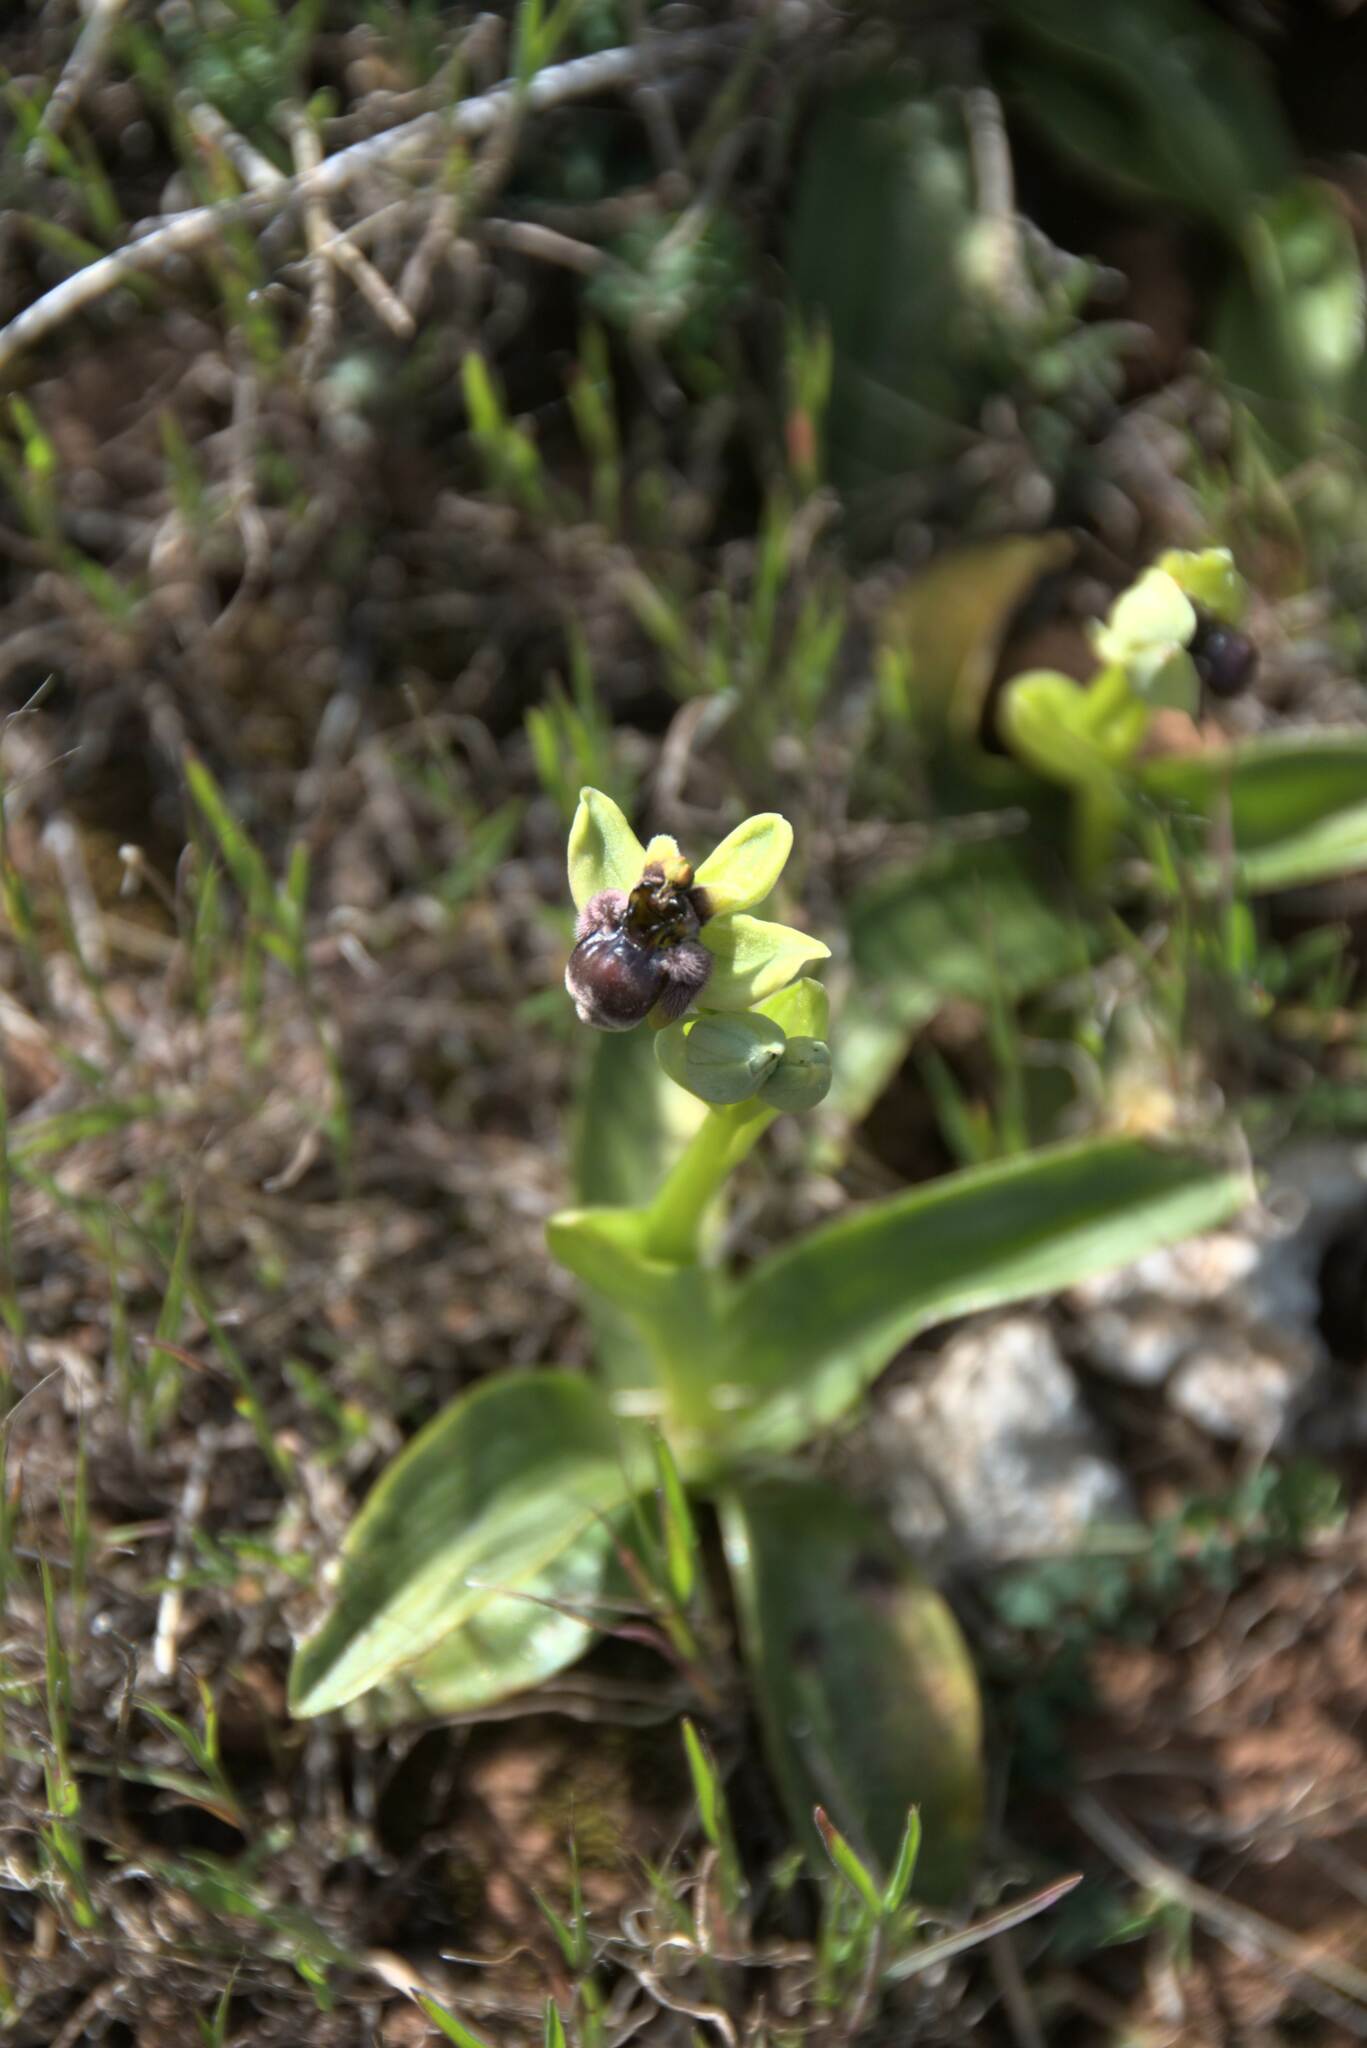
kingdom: Plantae
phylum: Tracheophyta
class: Liliopsida
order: Asparagales
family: Orchidaceae
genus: Ophrys
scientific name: Ophrys bombyliflora
